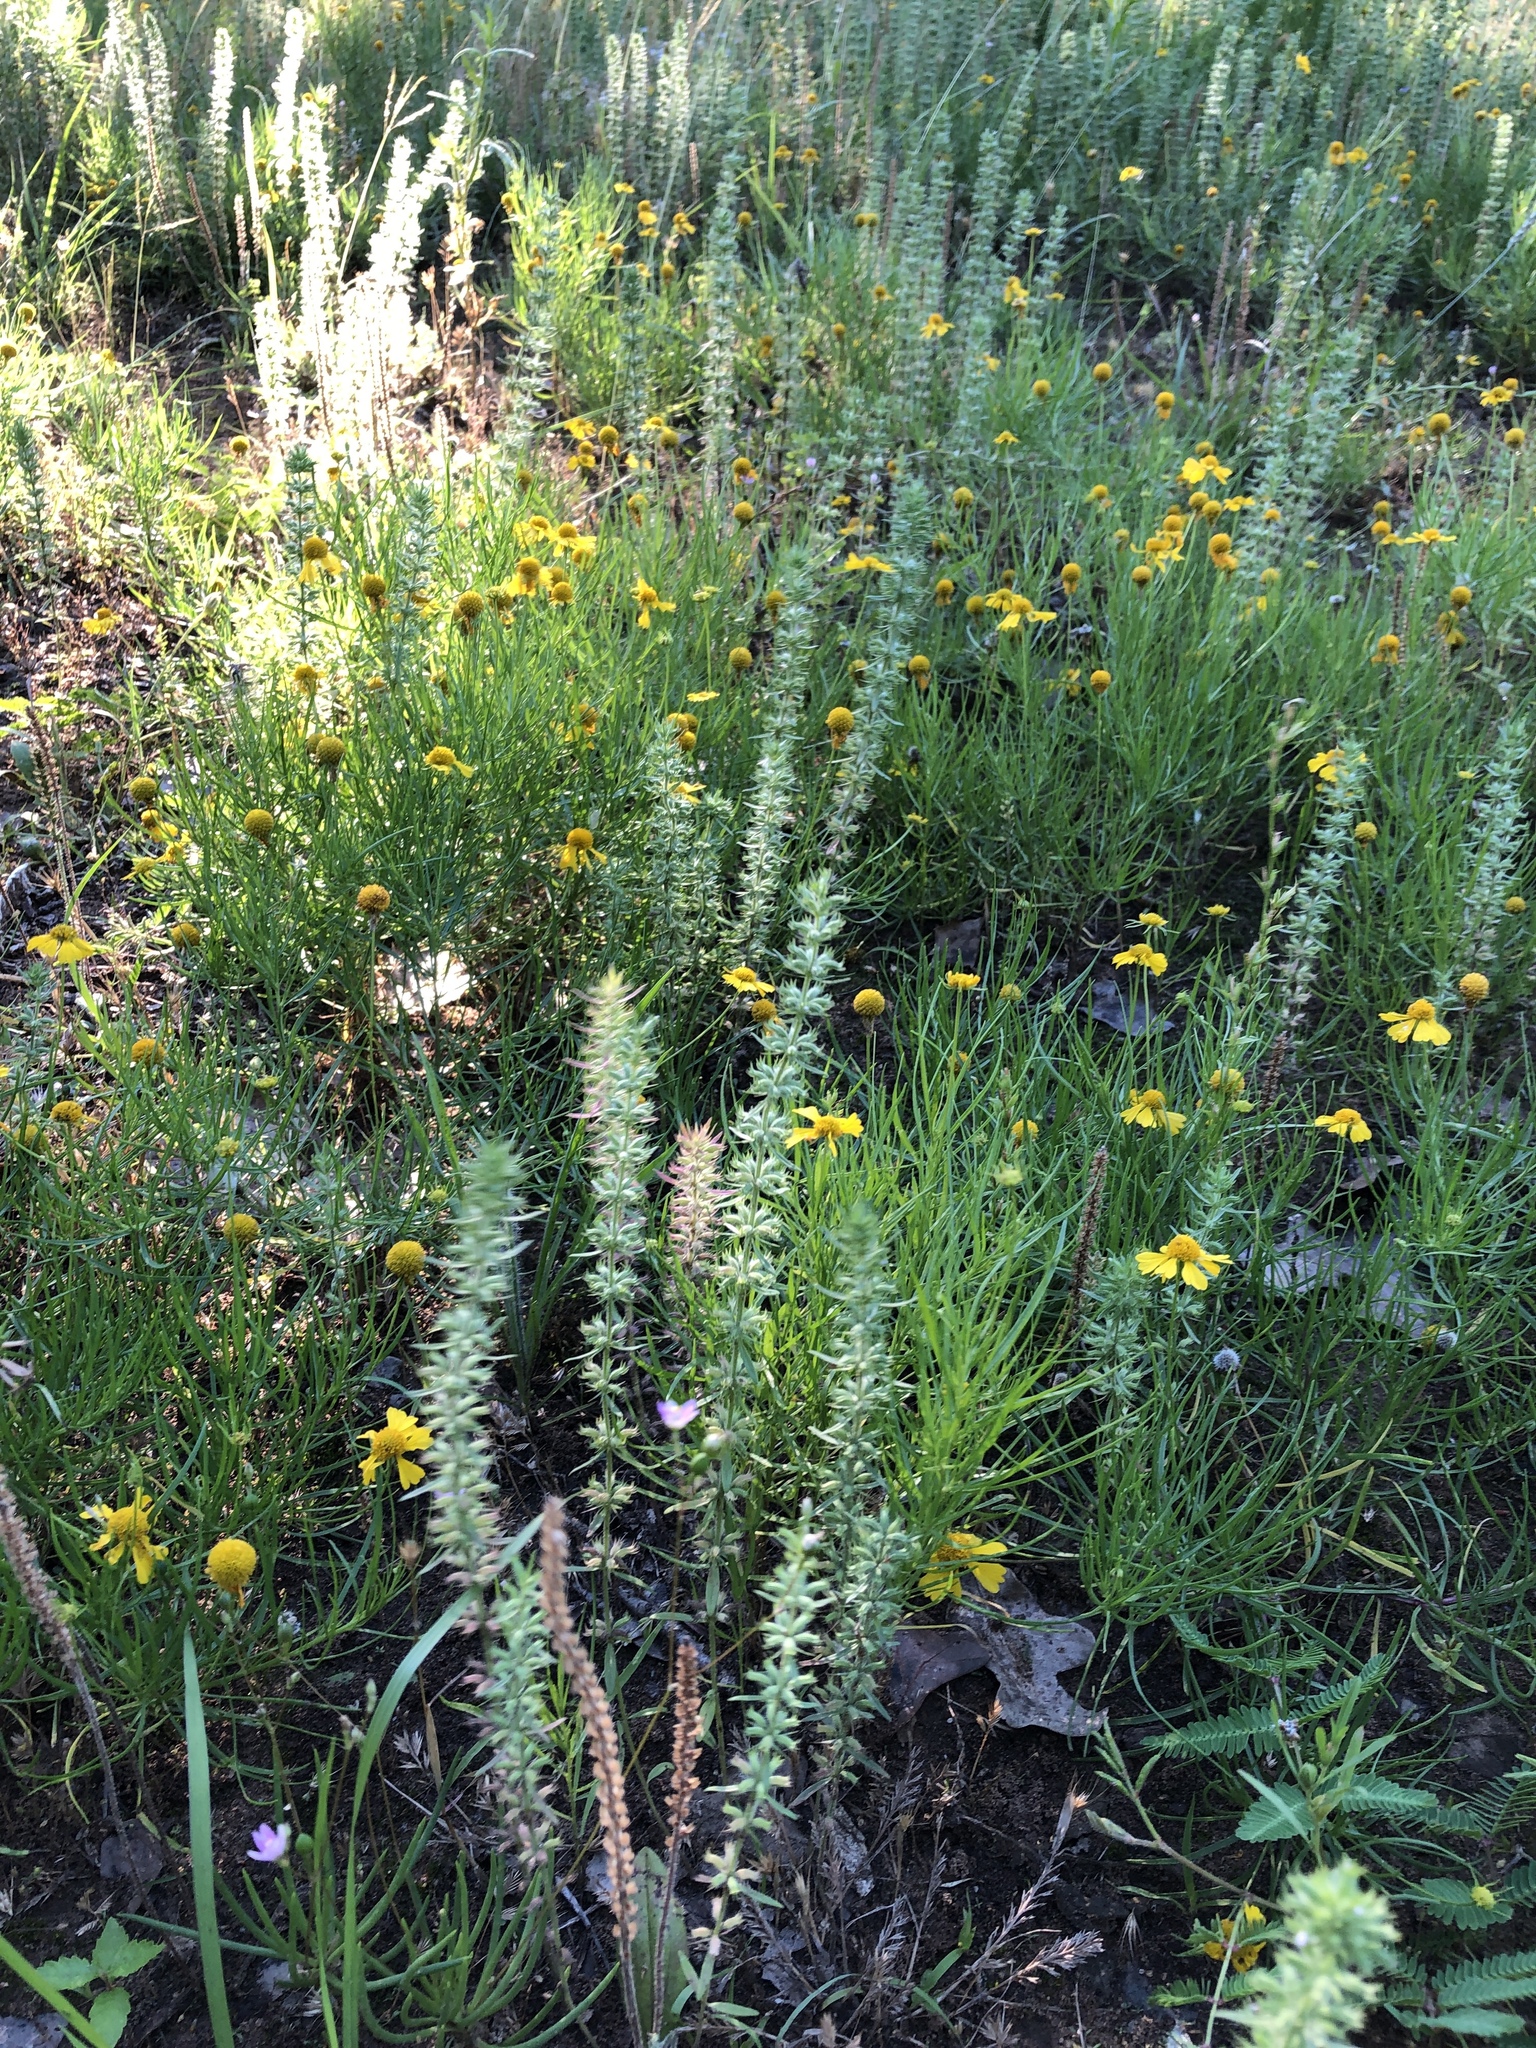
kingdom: Plantae
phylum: Tracheophyta
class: Magnoliopsida
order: Lamiales
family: Lamiaceae
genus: Hedeoma
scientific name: Hedeoma hispida
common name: Mock pennyroyal
